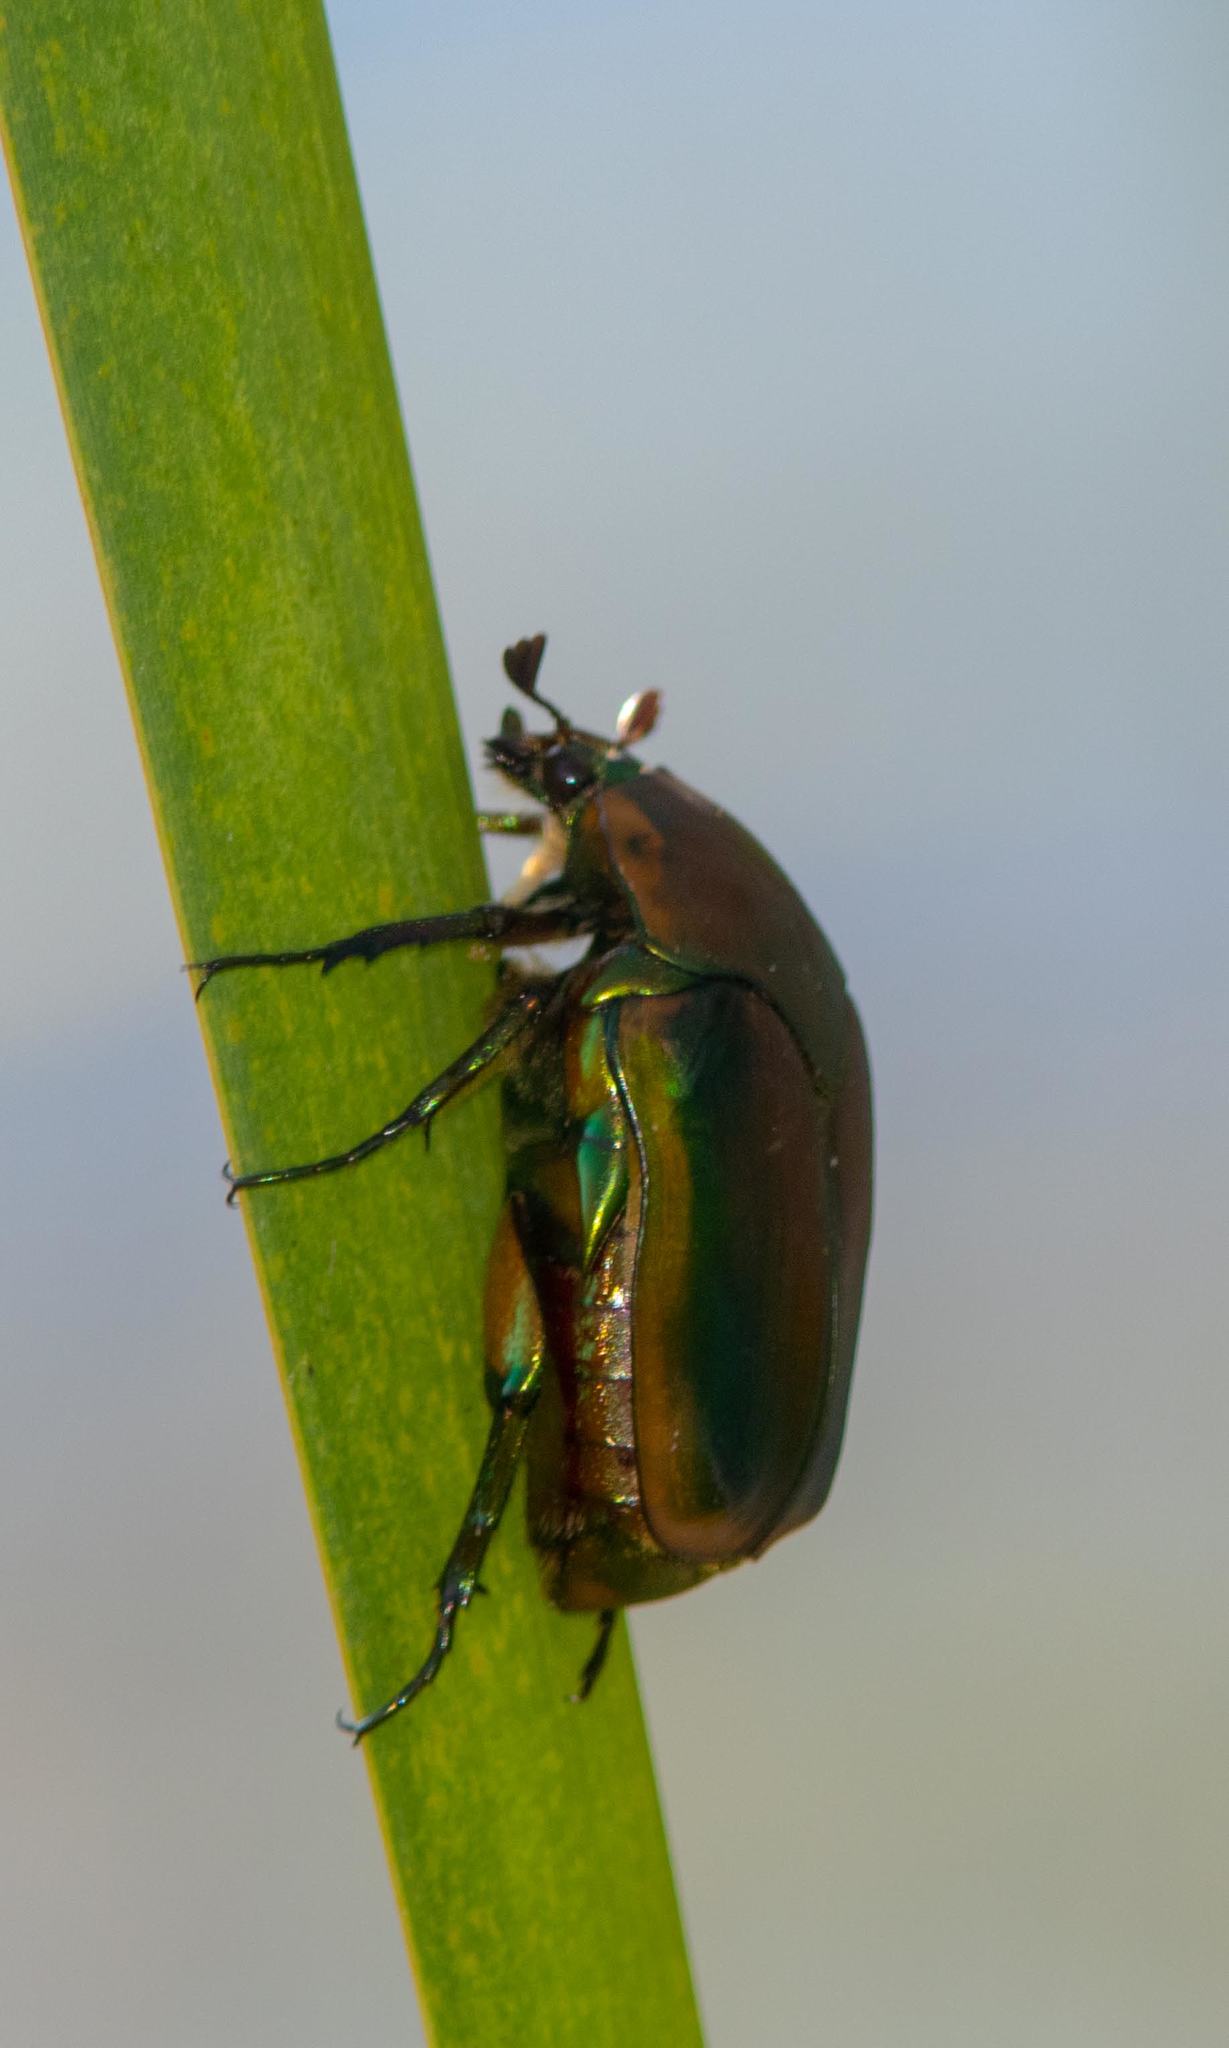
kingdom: Animalia
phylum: Arthropoda
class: Insecta
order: Coleoptera
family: Scarabaeidae
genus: Cotinis
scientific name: Cotinis nitida
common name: Common green june beetle
